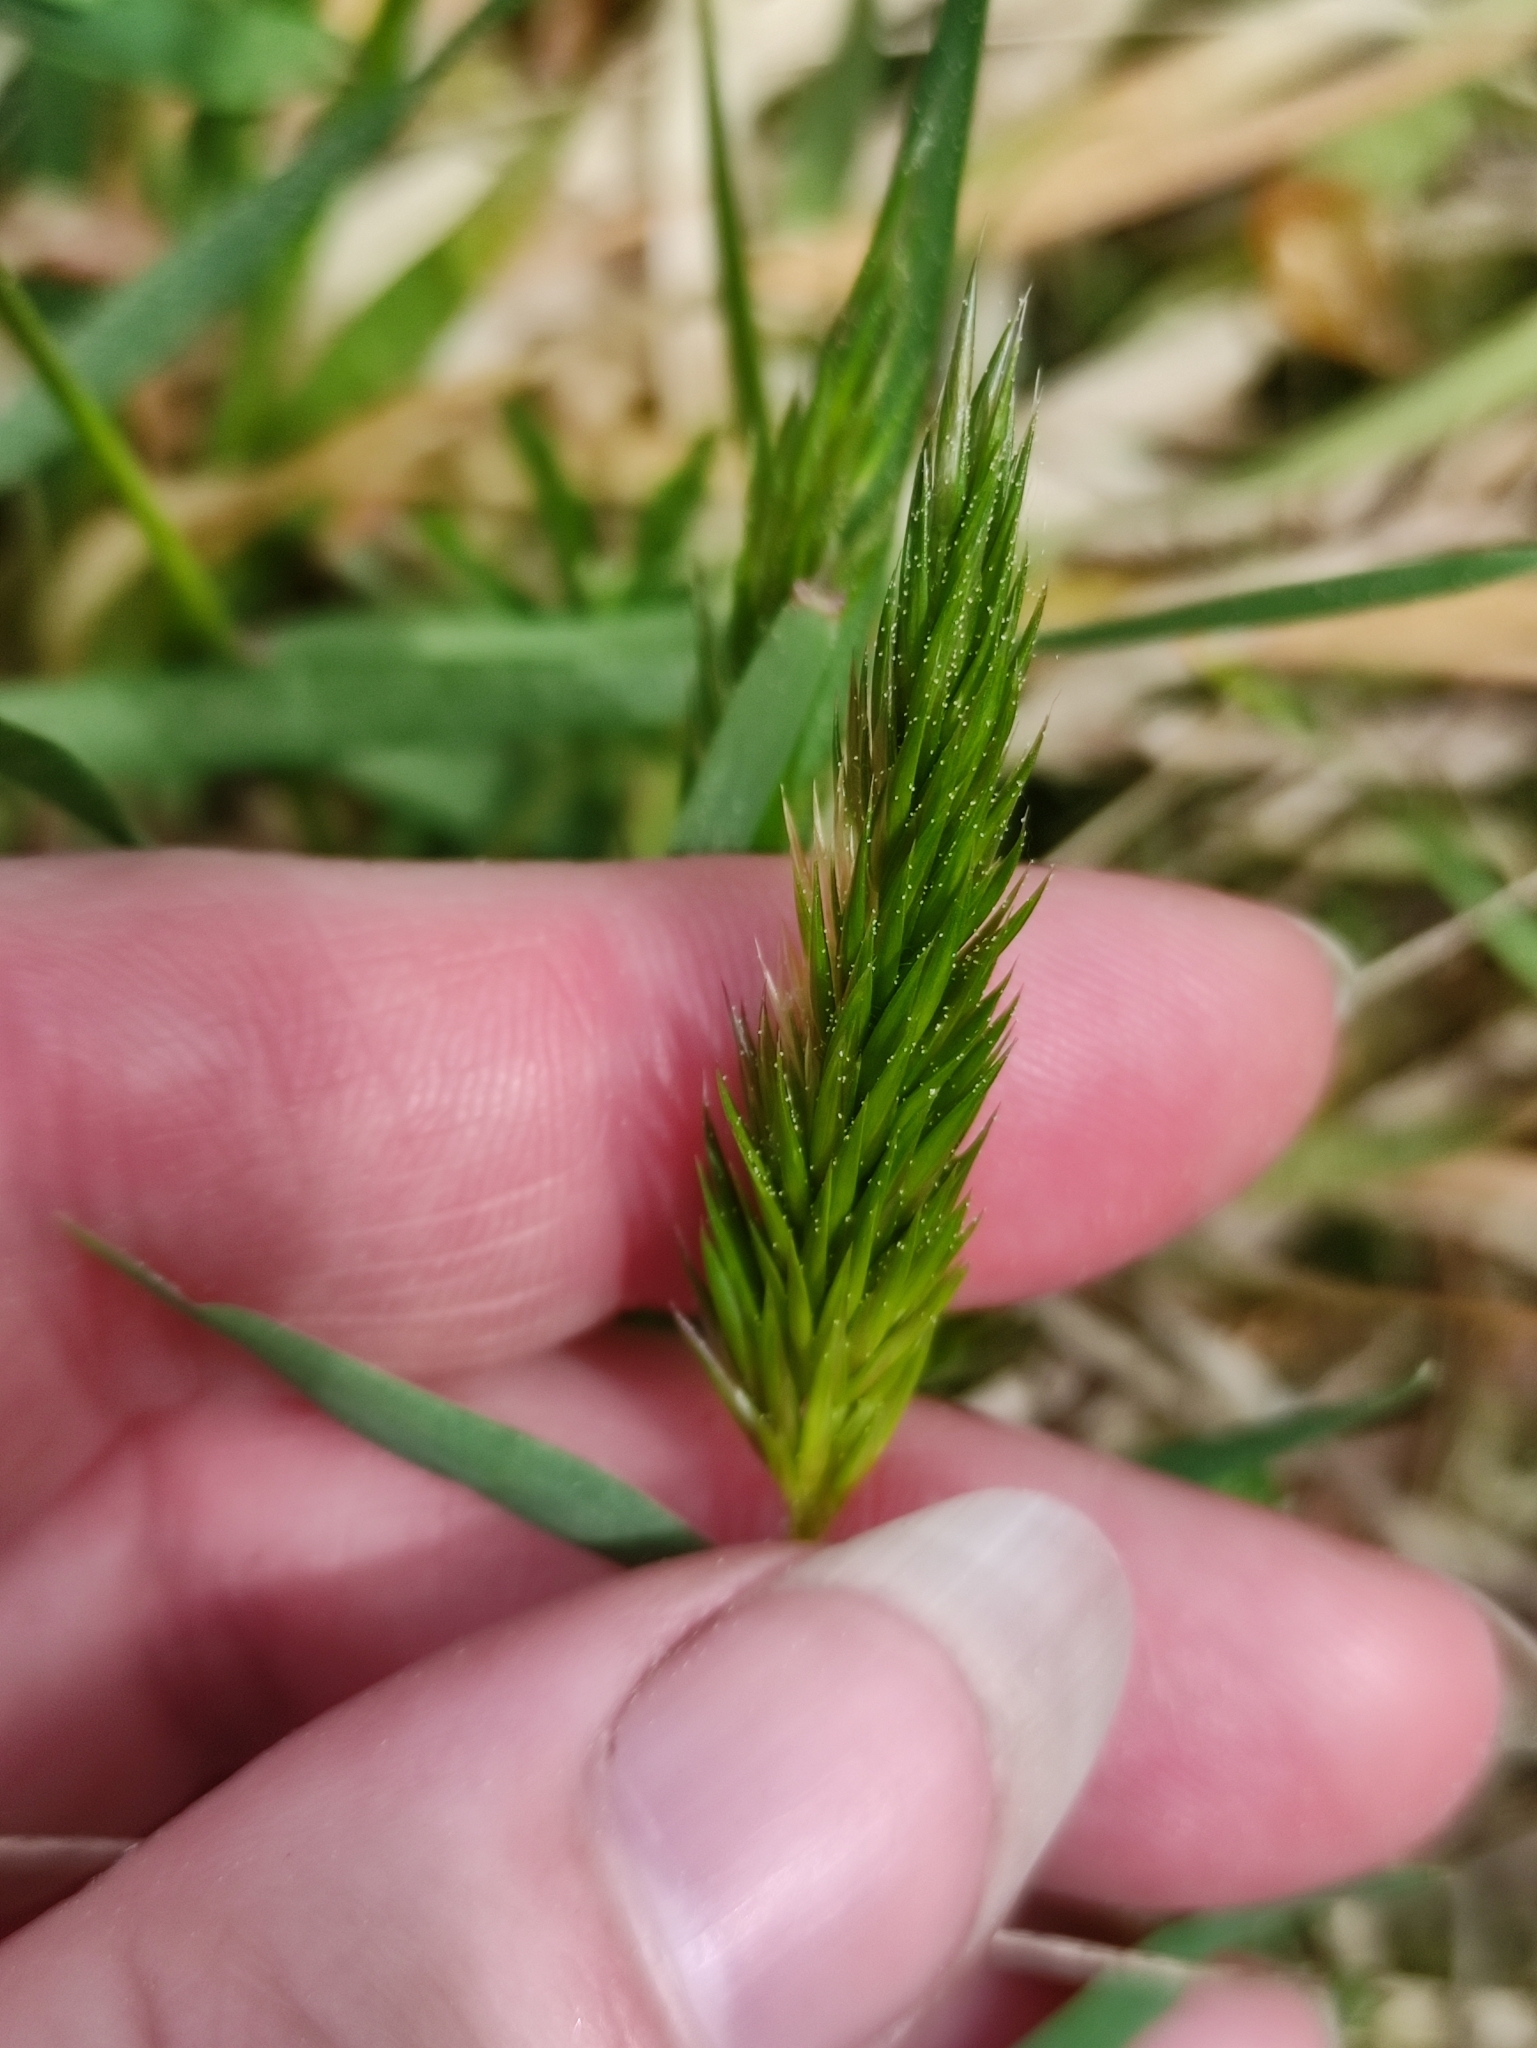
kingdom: Plantae
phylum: Tracheophyta
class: Liliopsida
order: Poales
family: Poaceae
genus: Anthoxanthum
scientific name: Anthoxanthum odoratum
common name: Sweet vernalgrass
